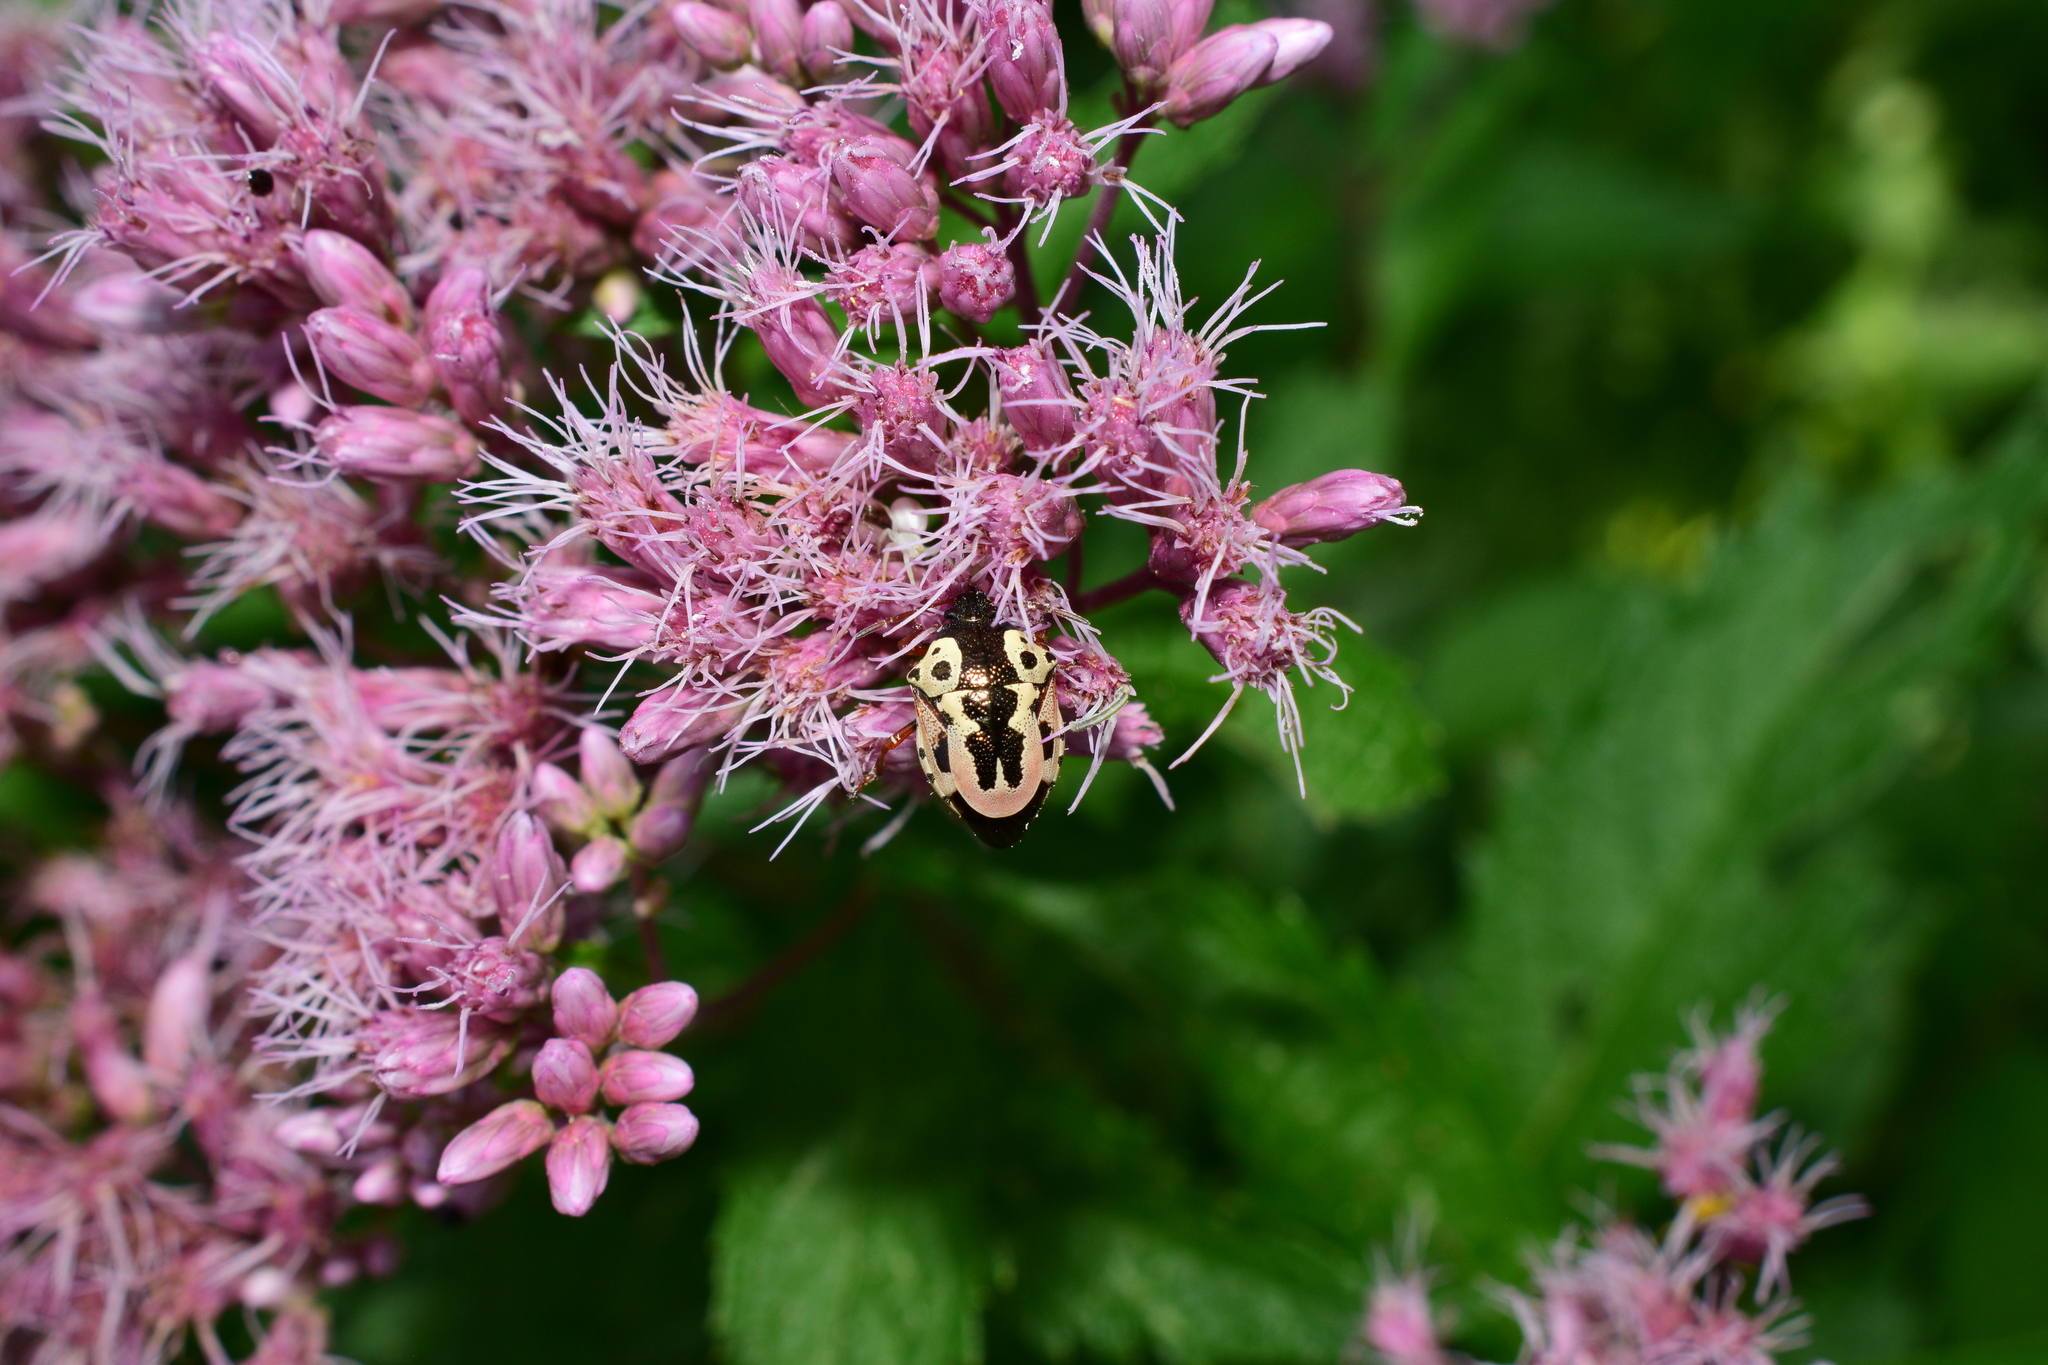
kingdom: Animalia
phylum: Arthropoda
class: Insecta
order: Hemiptera
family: Pentatomidae
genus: Stiretrus
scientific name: Stiretrus anchorago
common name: Anchor stink bug
